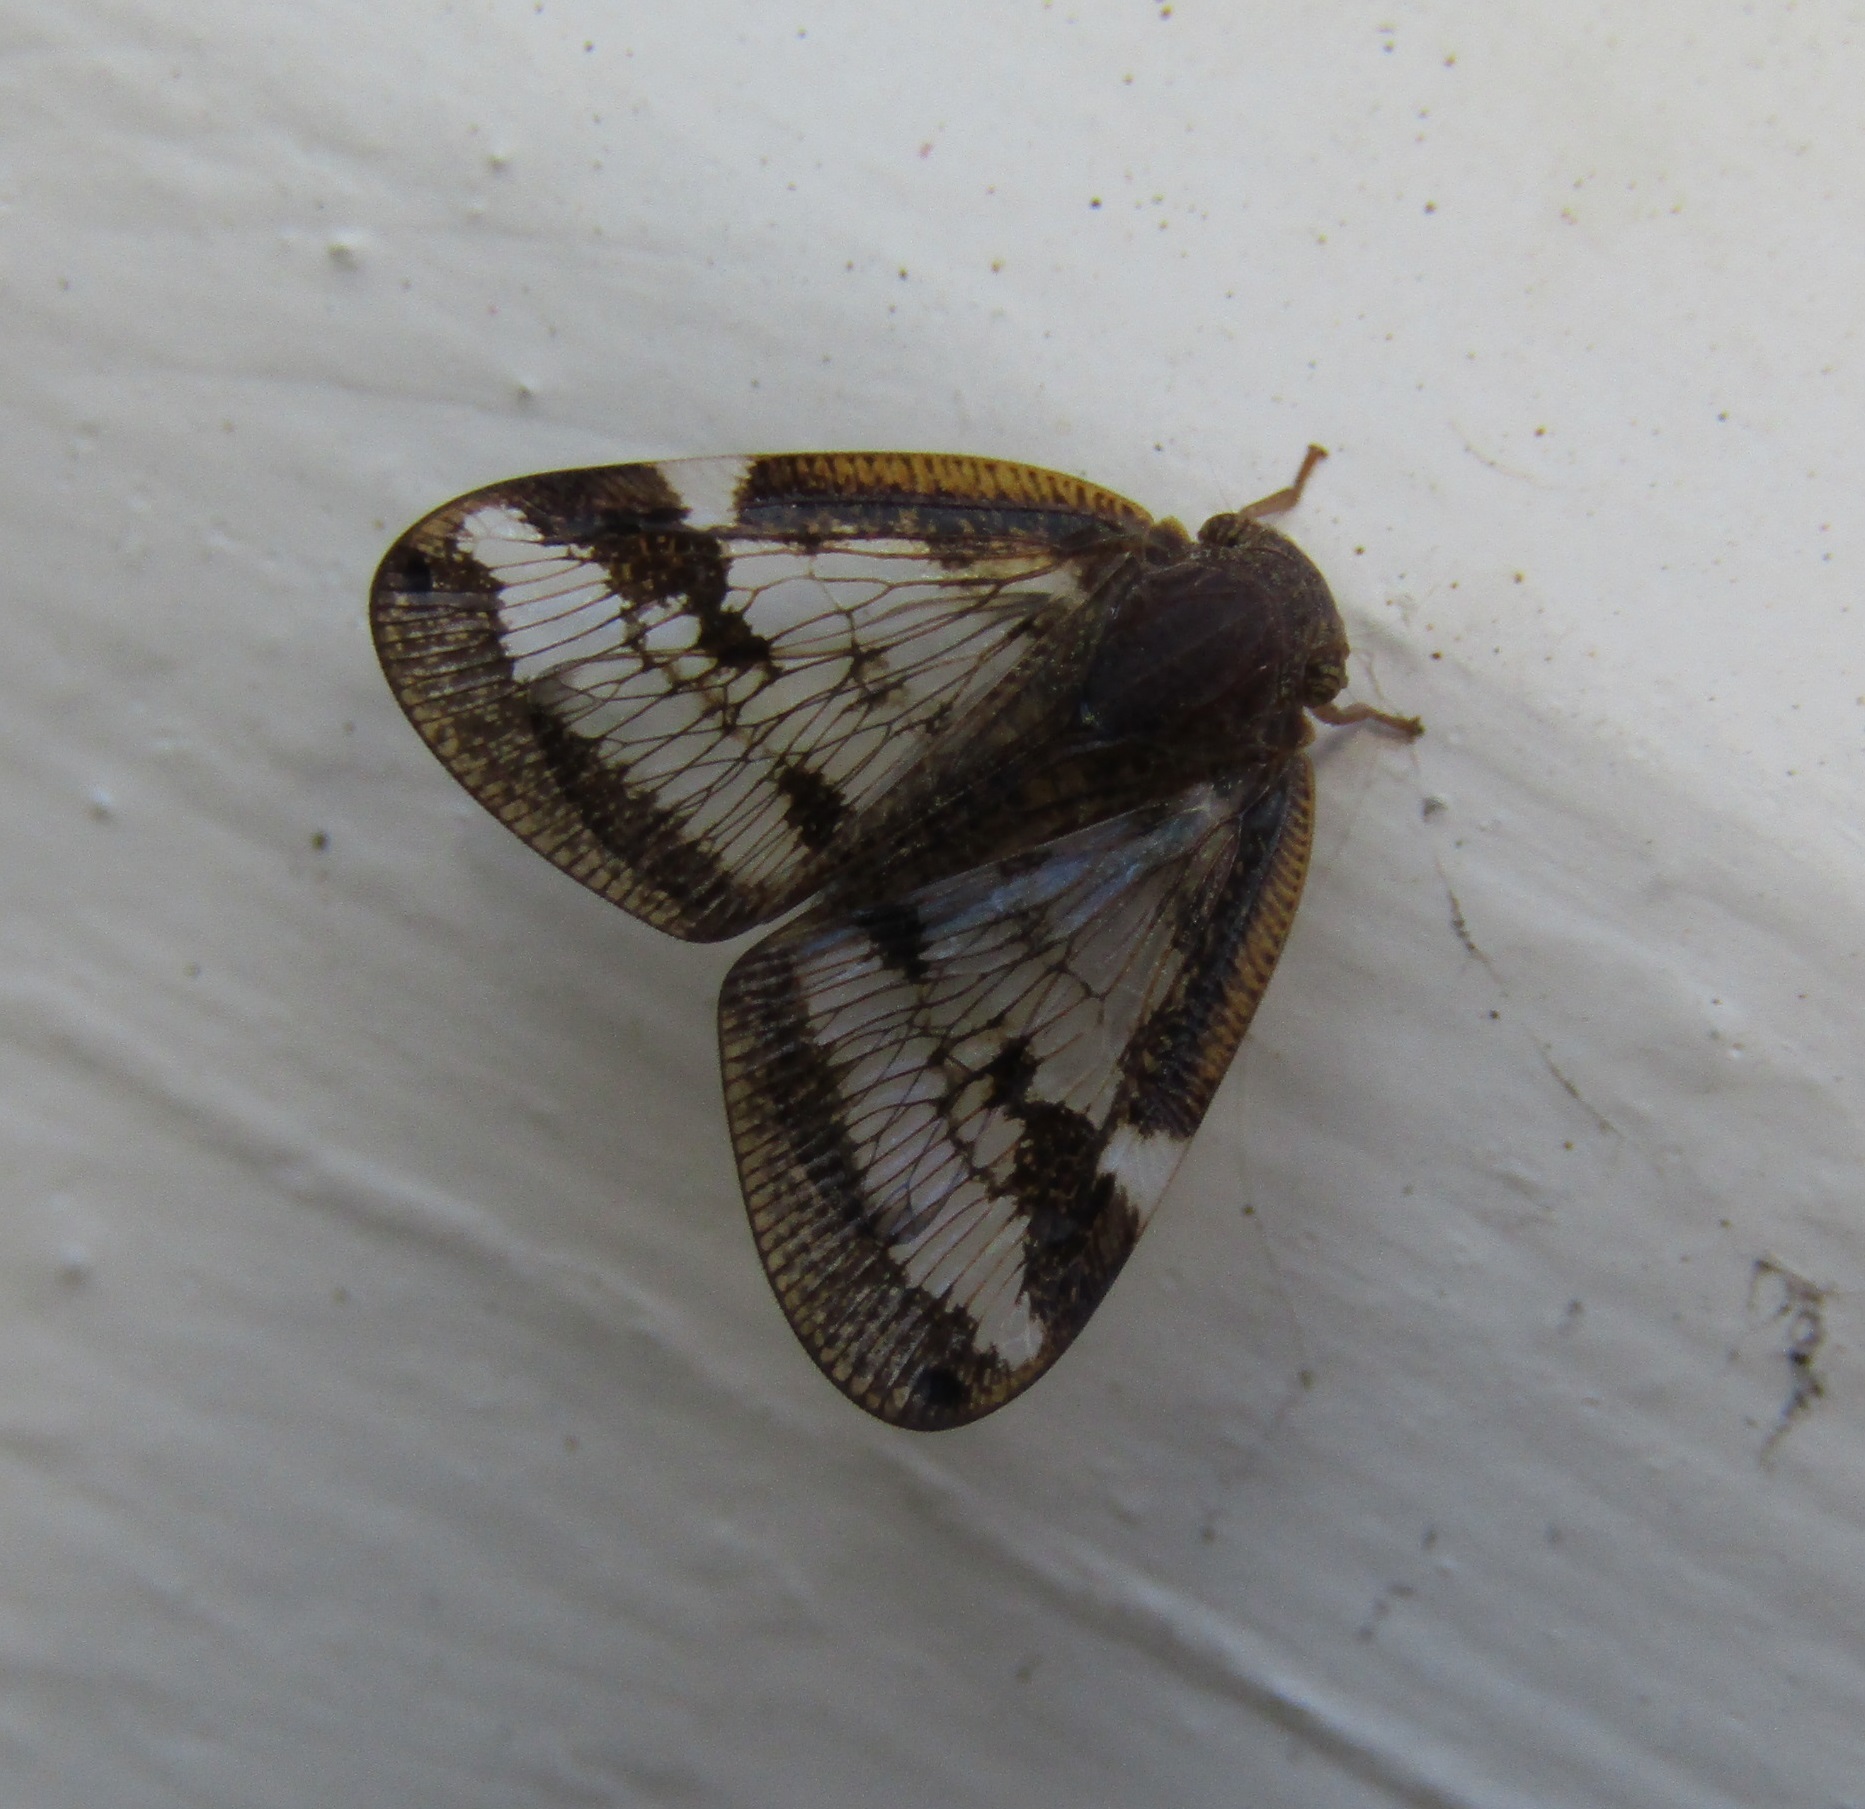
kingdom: Animalia
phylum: Arthropoda
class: Insecta
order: Hemiptera
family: Ricaniidae
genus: Scolypopa
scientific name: Scolypopa australis
